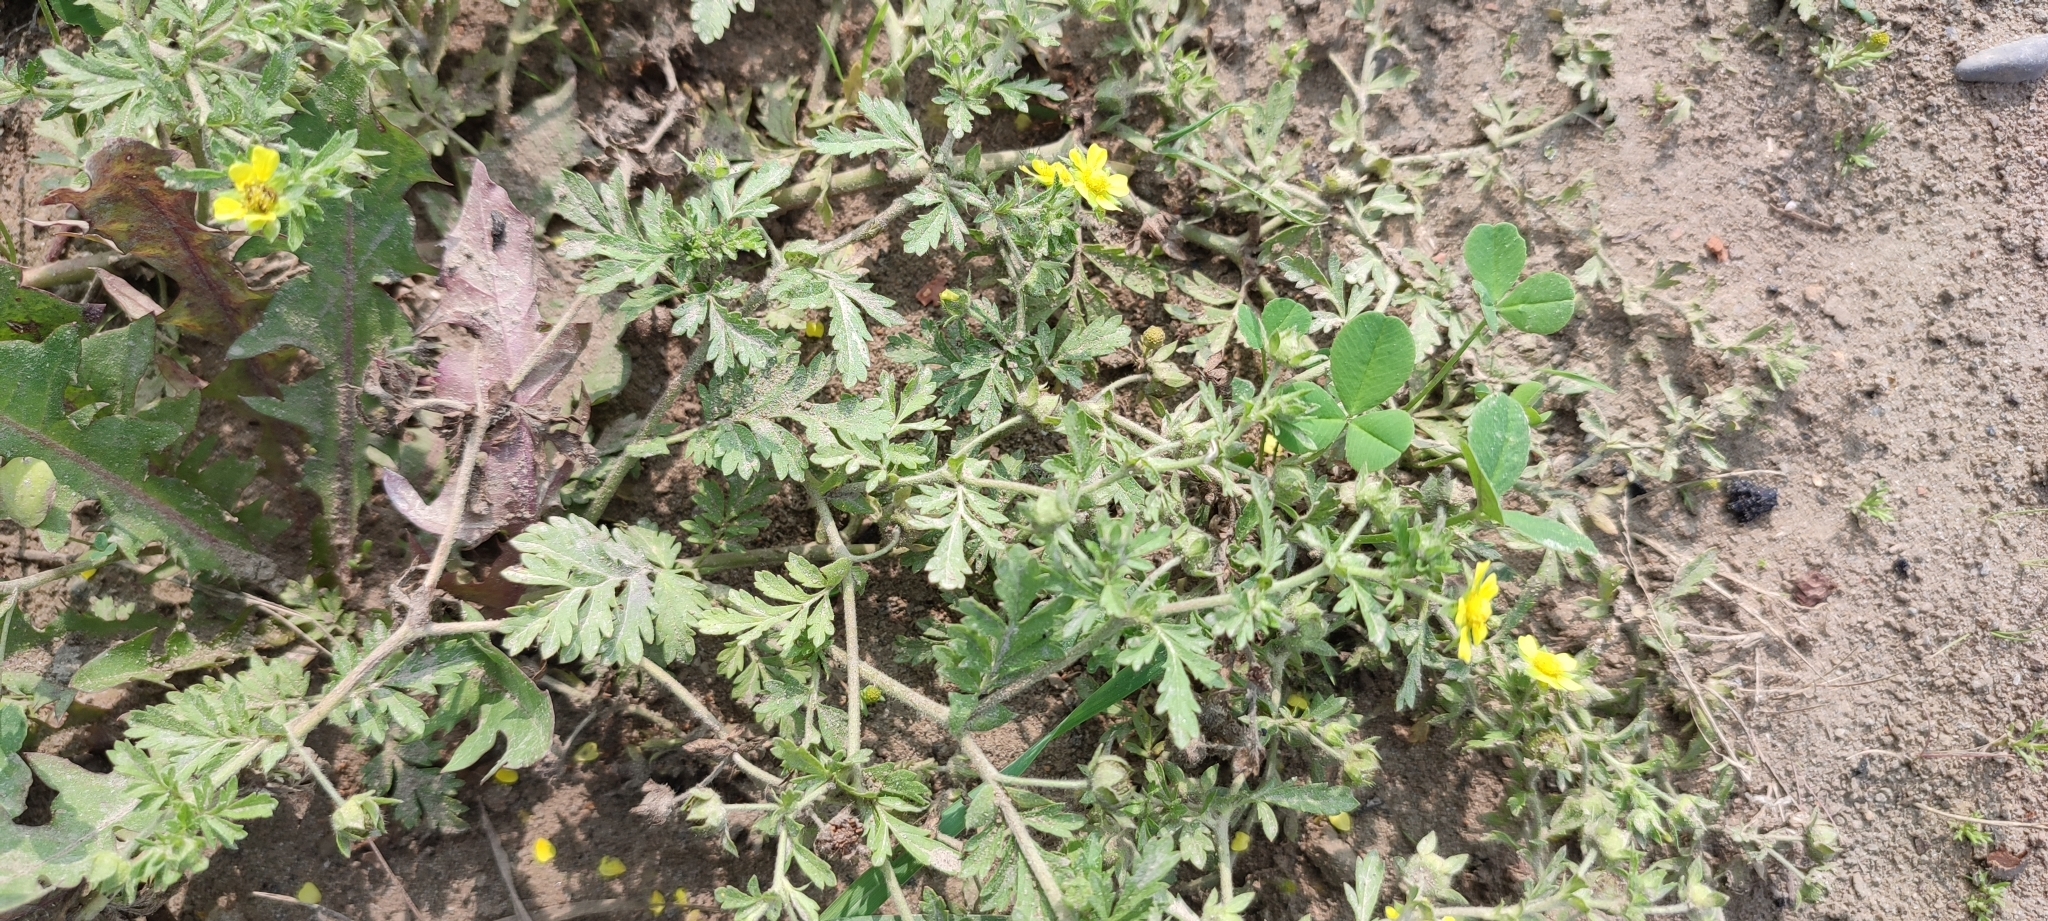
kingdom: Plantae
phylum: Tracheophyta
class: Magnoliopsida
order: Rosales
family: Rosaceae
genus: Potentilla
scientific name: Potentilla supina
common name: Prostrate cinquefoil
